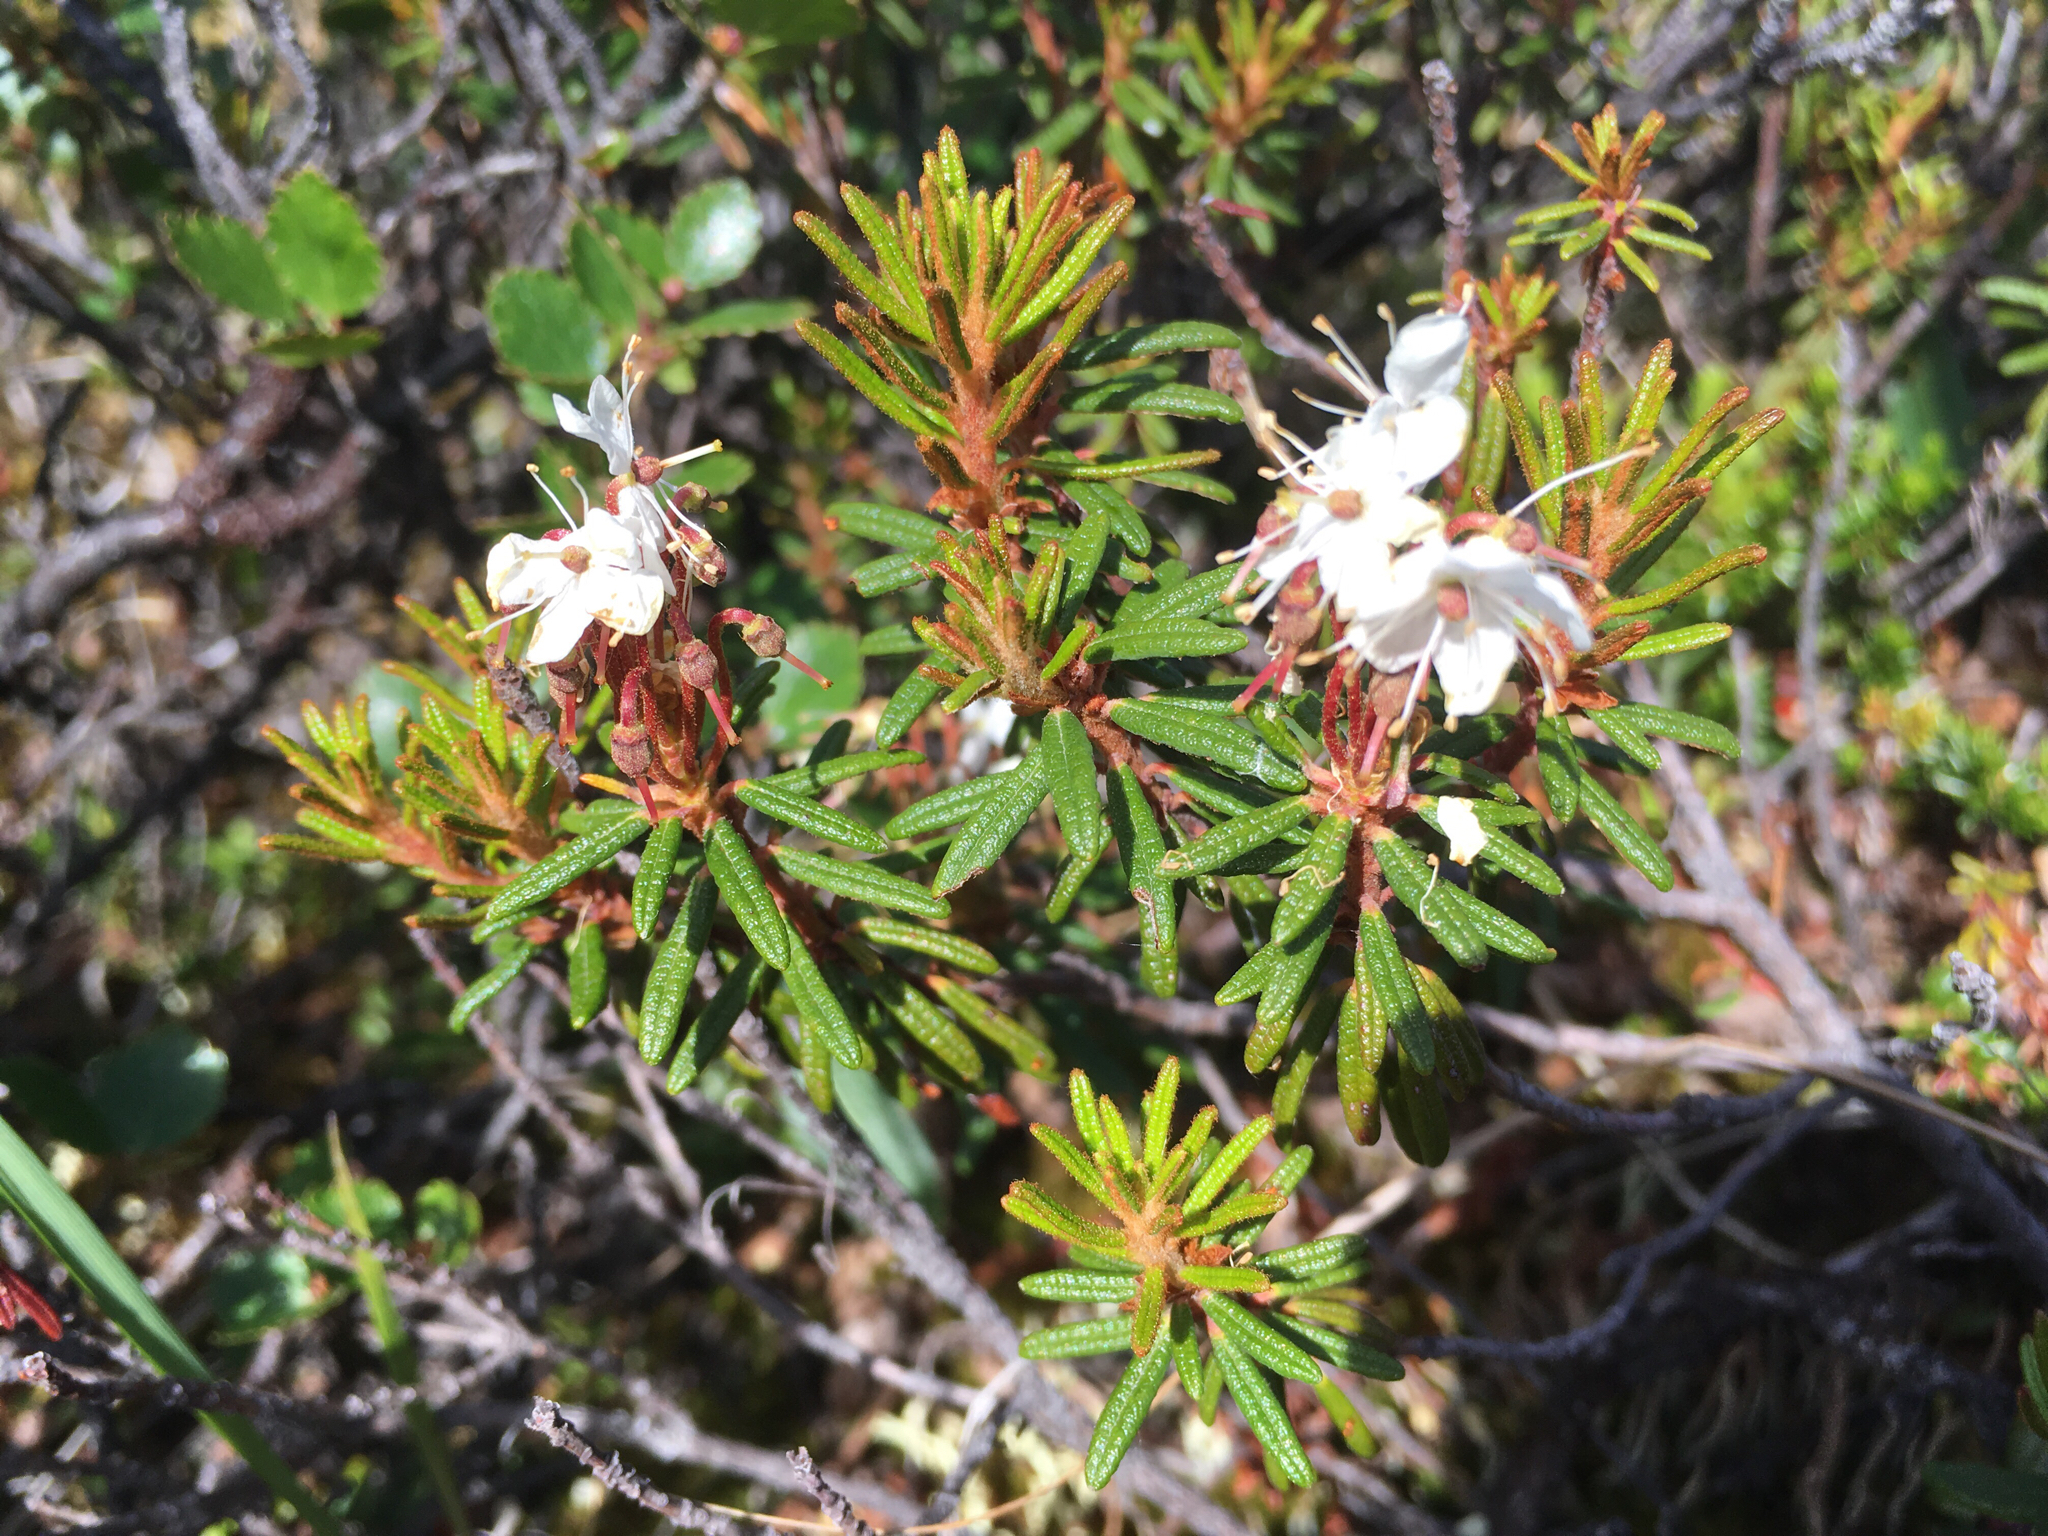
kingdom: Plantae
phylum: Tracheophyta
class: Magnoliopsida
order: Ericales
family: Ericaceae
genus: Rhododendron
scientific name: Rhododendron tomentosum
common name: Marsh labrador tea
